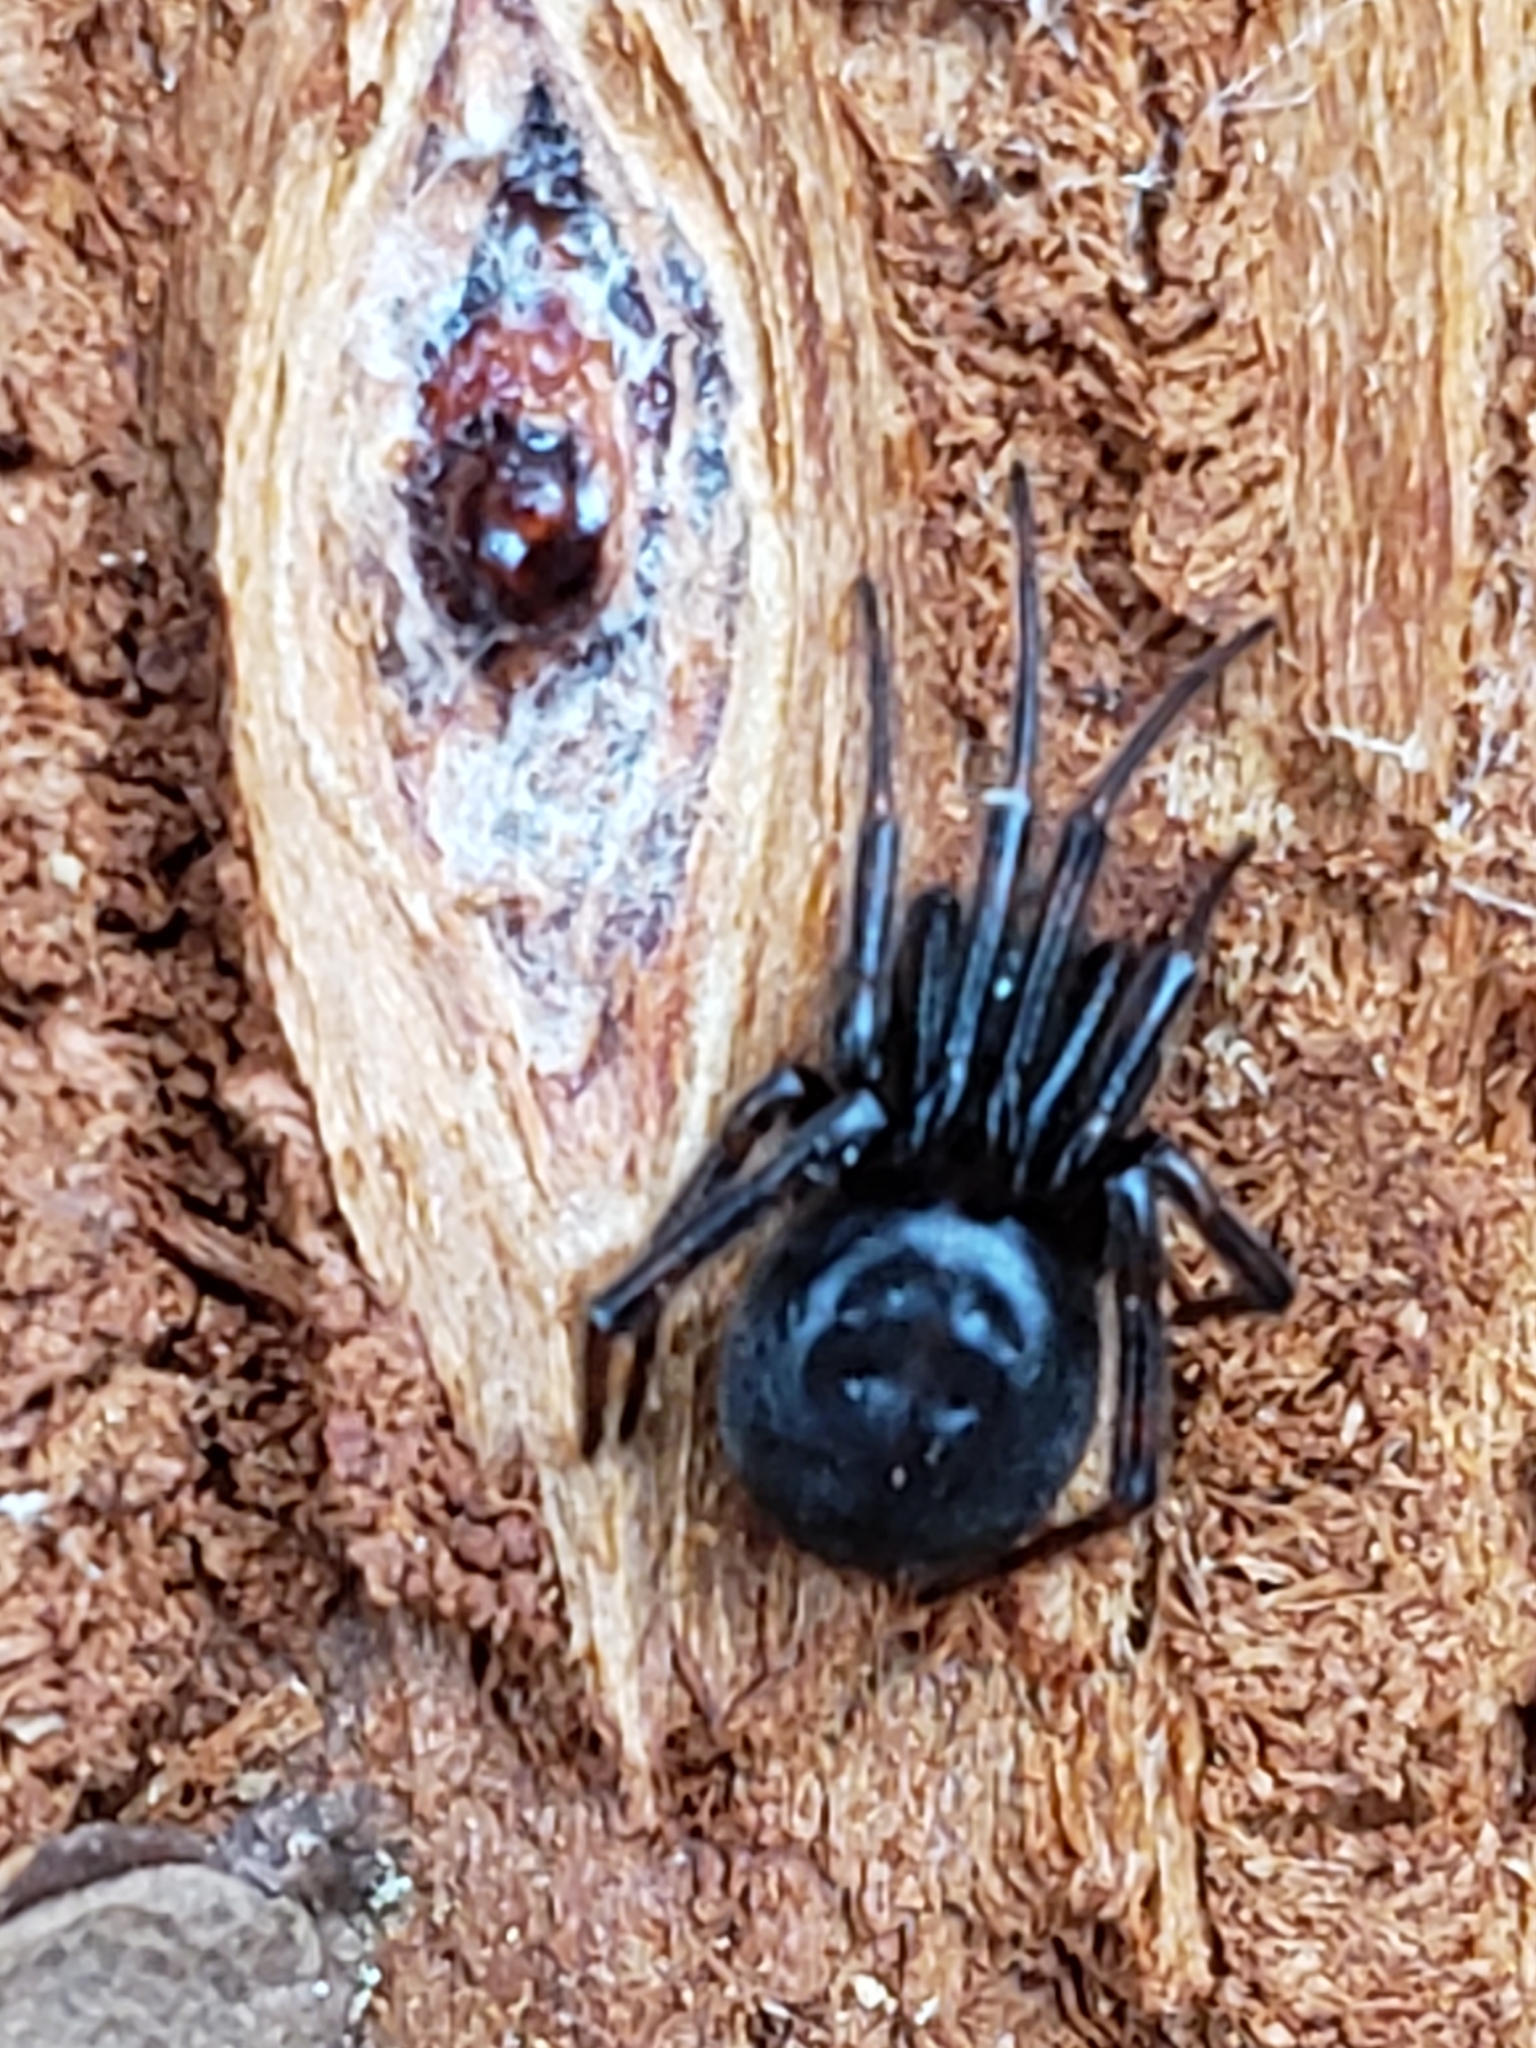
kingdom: Animalia
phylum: Arthropoda
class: Arachnida
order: Araneae
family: Theridiidae
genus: Steatoda
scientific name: Steatoda borealis
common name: Boreal combfoot
